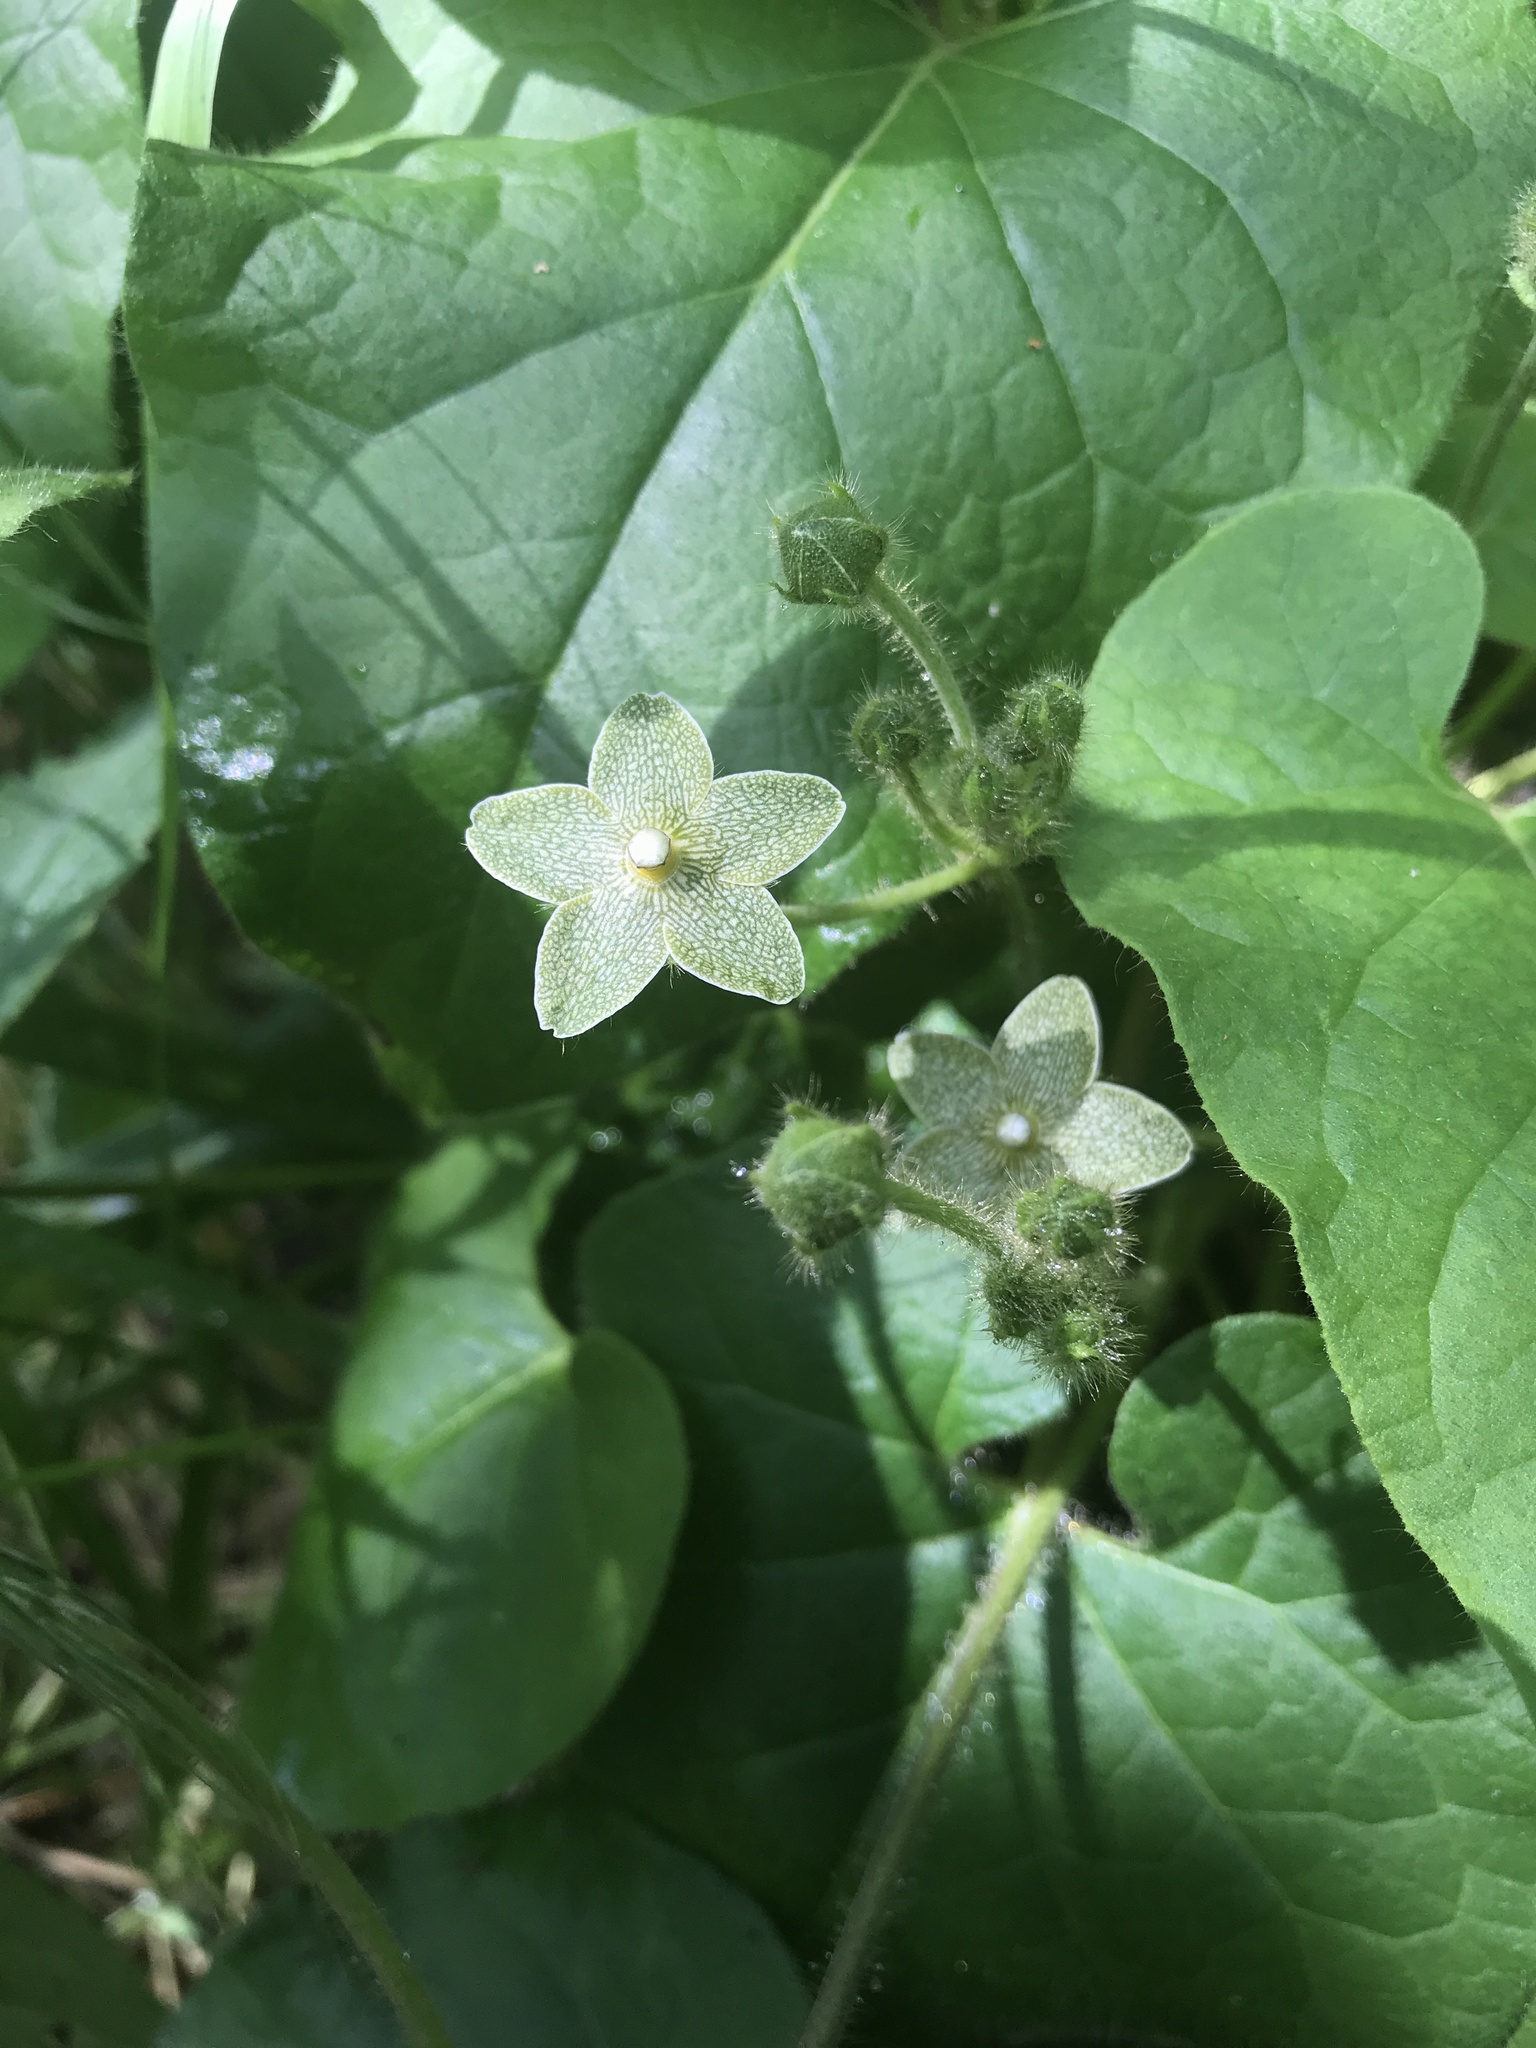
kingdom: Plantae
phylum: Tracheophyta
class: Magnoliopsida
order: Gentianales
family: Apocynaceae
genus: Dictyanthus
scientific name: Dictyanthus reticulatus
